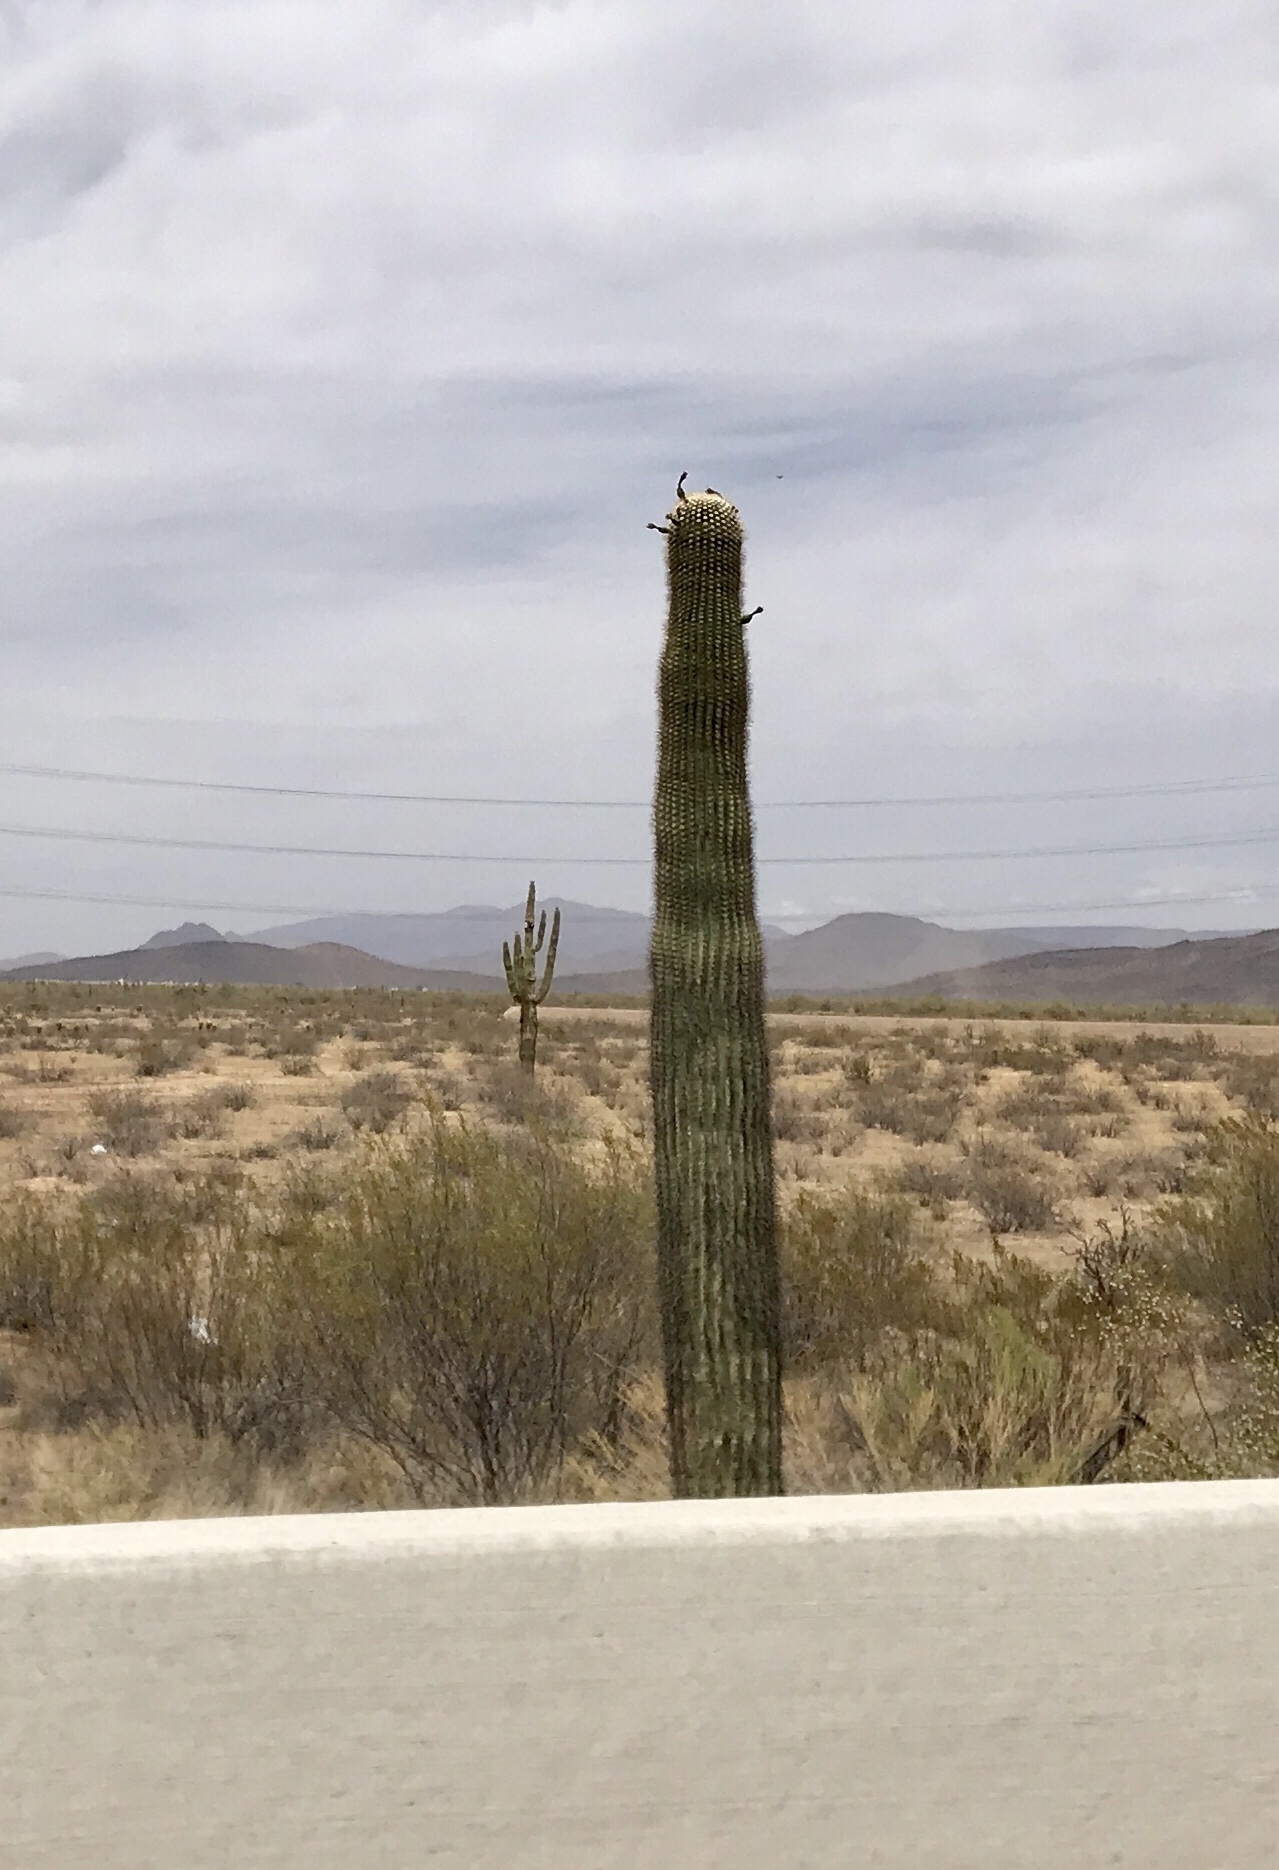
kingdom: Plantae
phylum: Tracheophyta
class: Magnoliopsida
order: Caryophyllales
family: Cactaceae
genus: Carnegiea
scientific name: Carnegiea gigantea
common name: Saguaro
